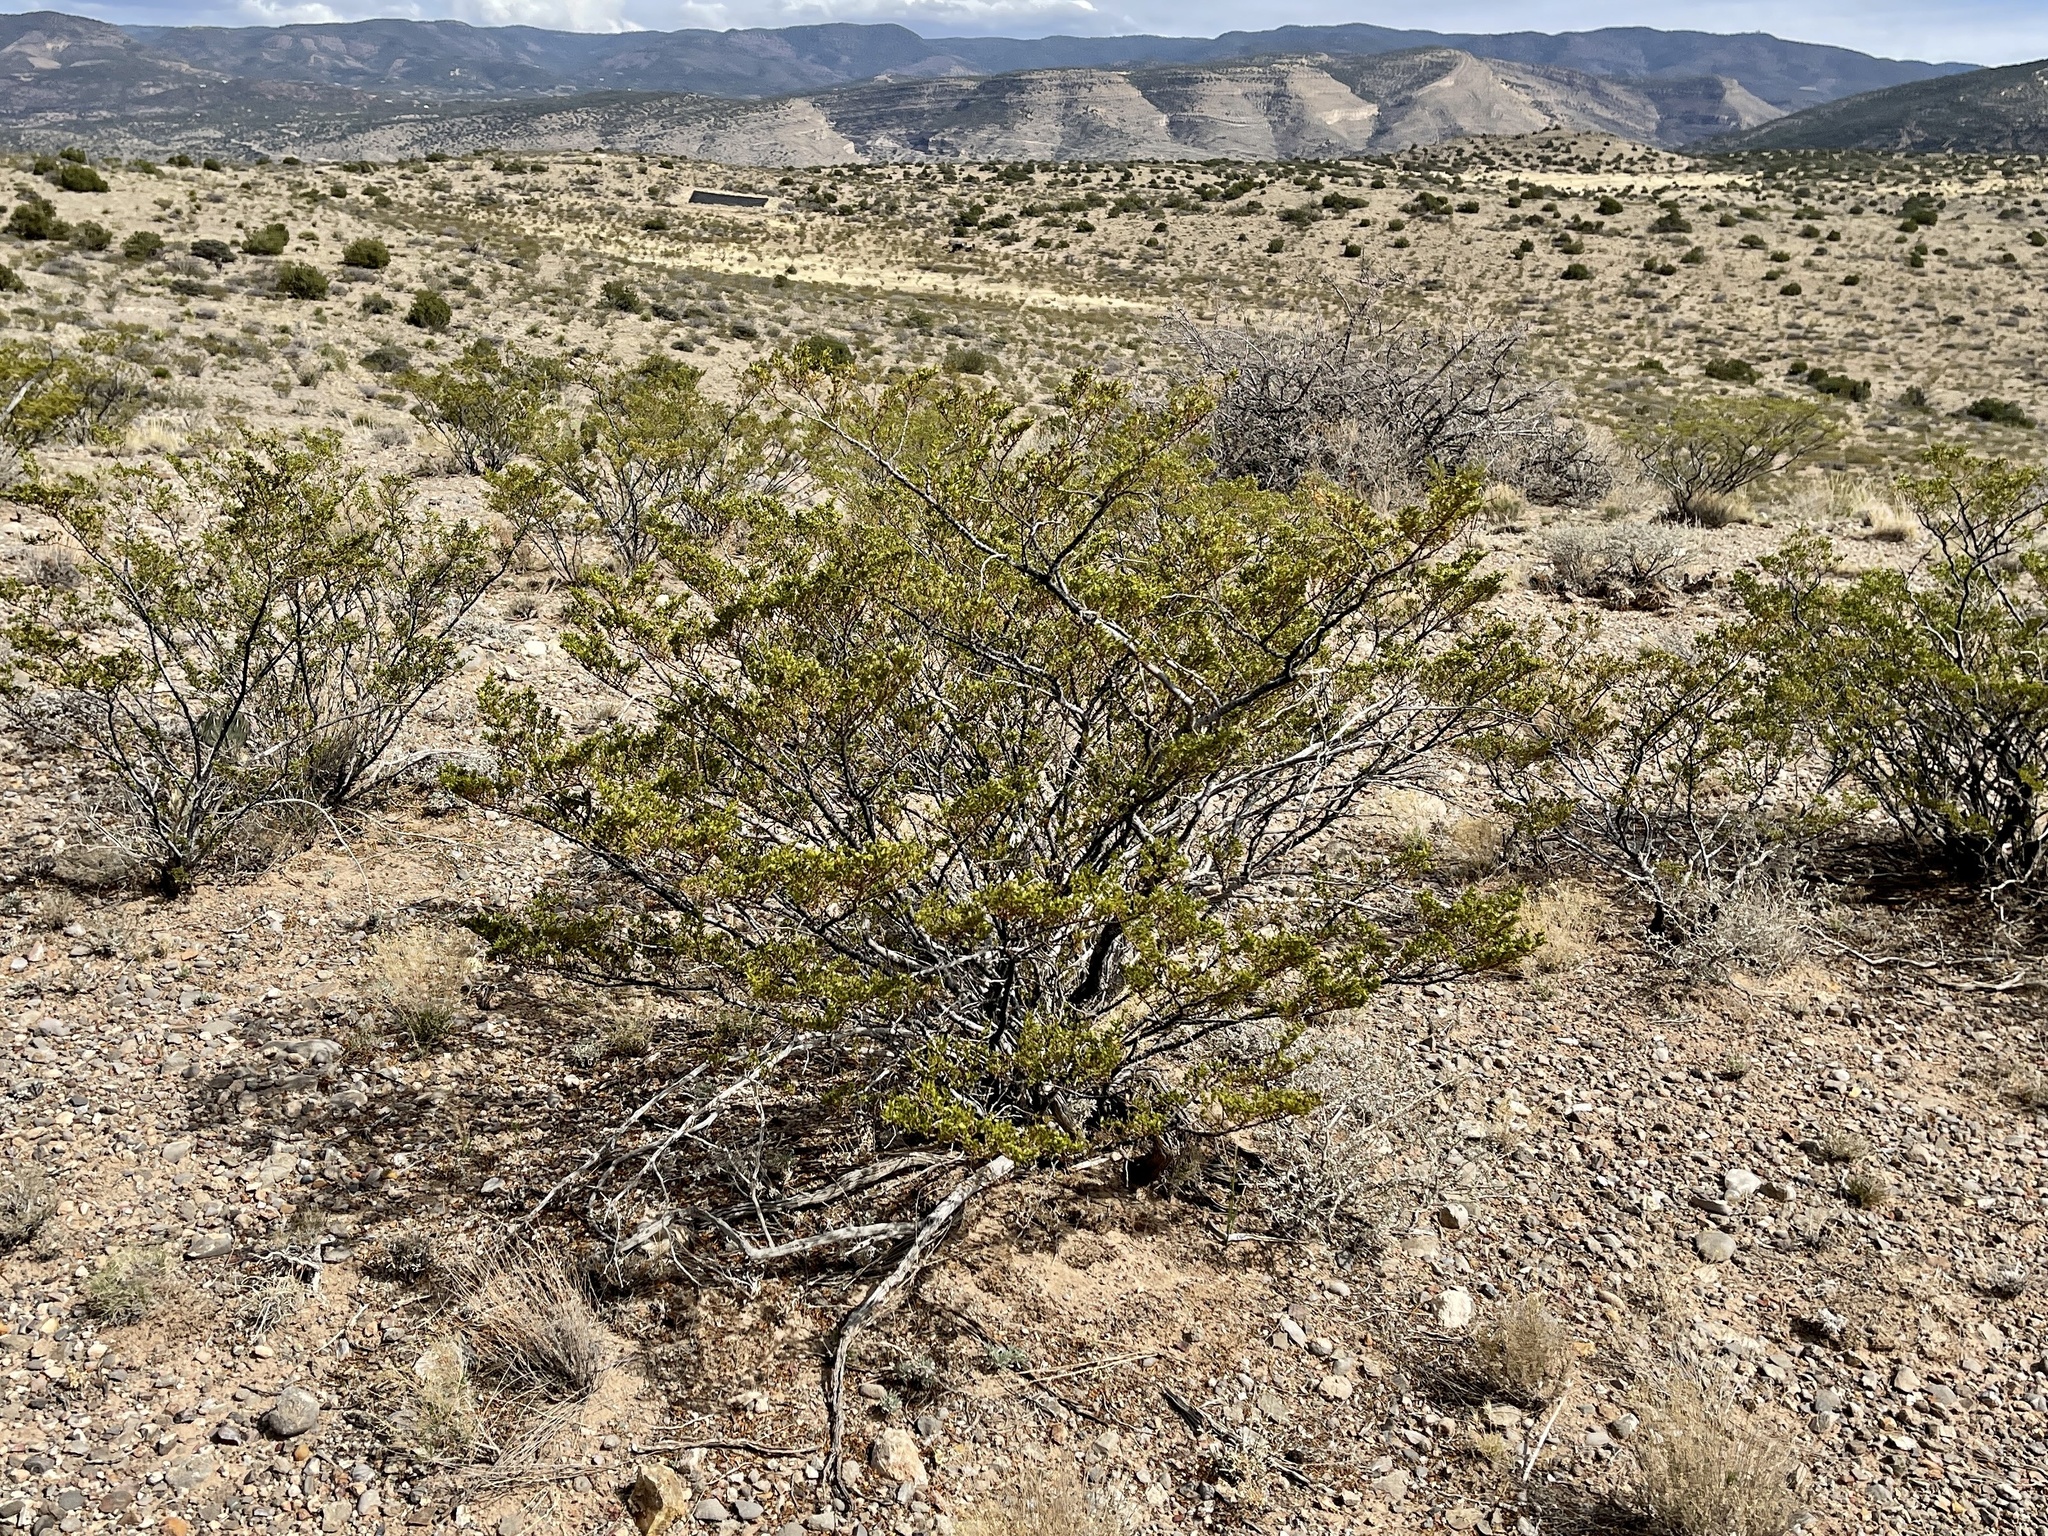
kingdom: Plantae
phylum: Tracheophyta
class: Magnoliopsida
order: Zygophyllales
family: Zygophyllaceae
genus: Larrea
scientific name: Larrea tridentata
